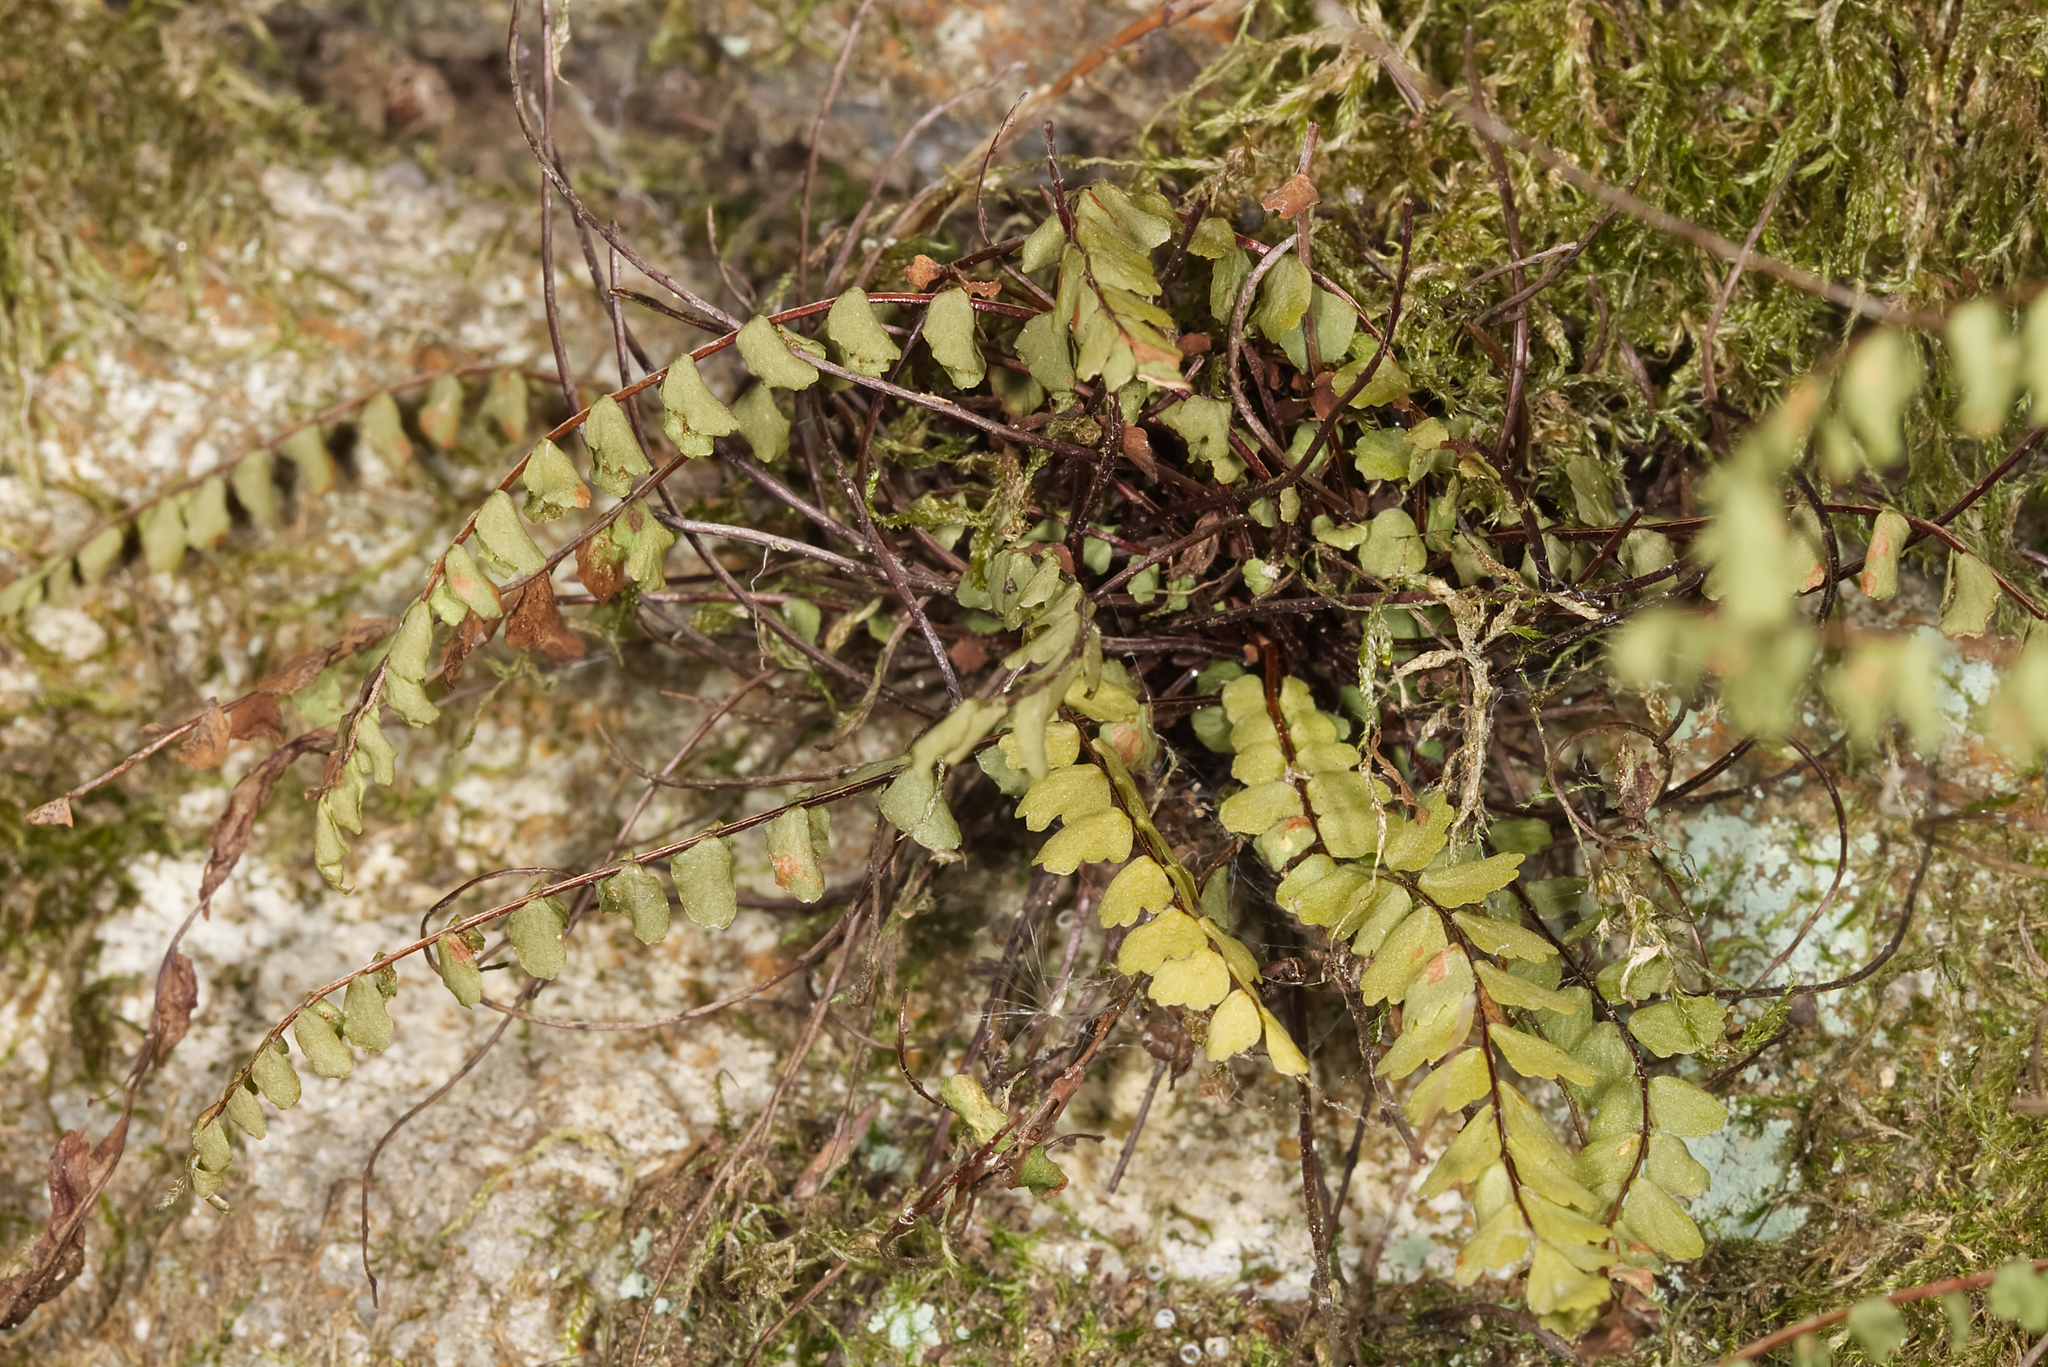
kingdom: Plantae
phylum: Tracheophyta
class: Polypodiopsida
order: Polypodiales
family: Aspleniaceae
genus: Asplenium
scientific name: Asplenium trichomanes
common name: Maidenhair spleenwort
